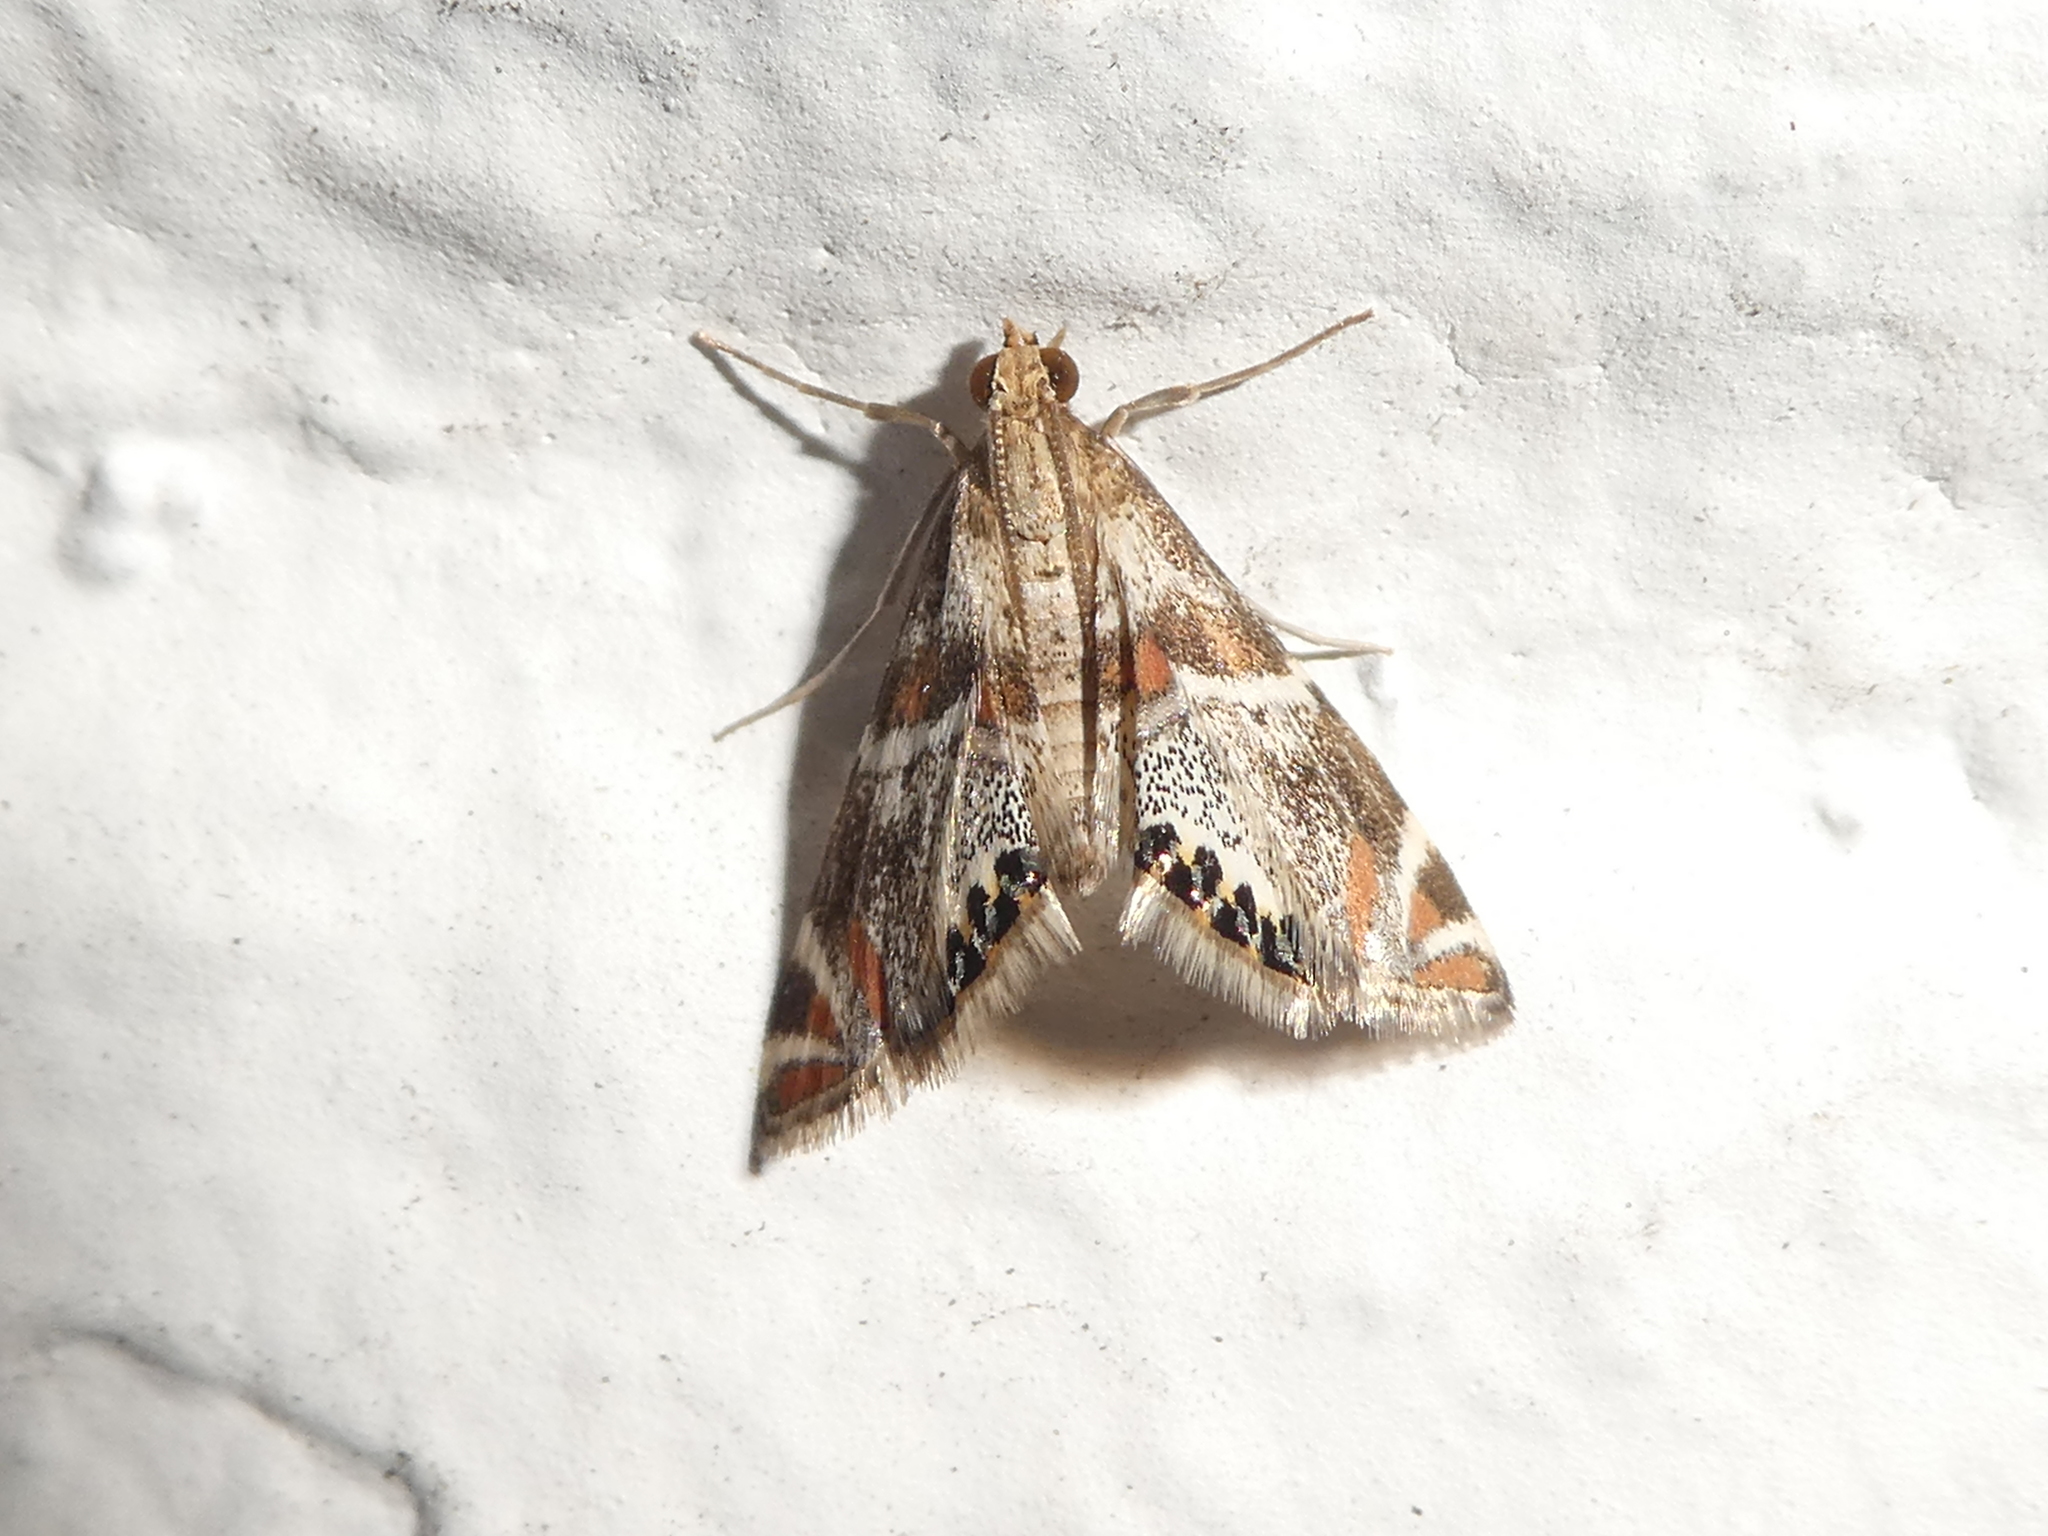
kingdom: Animalia
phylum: Arthropoda
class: Insecta
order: Lepidoptera
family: Crambidae
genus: Petrophila
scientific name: Petrophila jaliscalis
